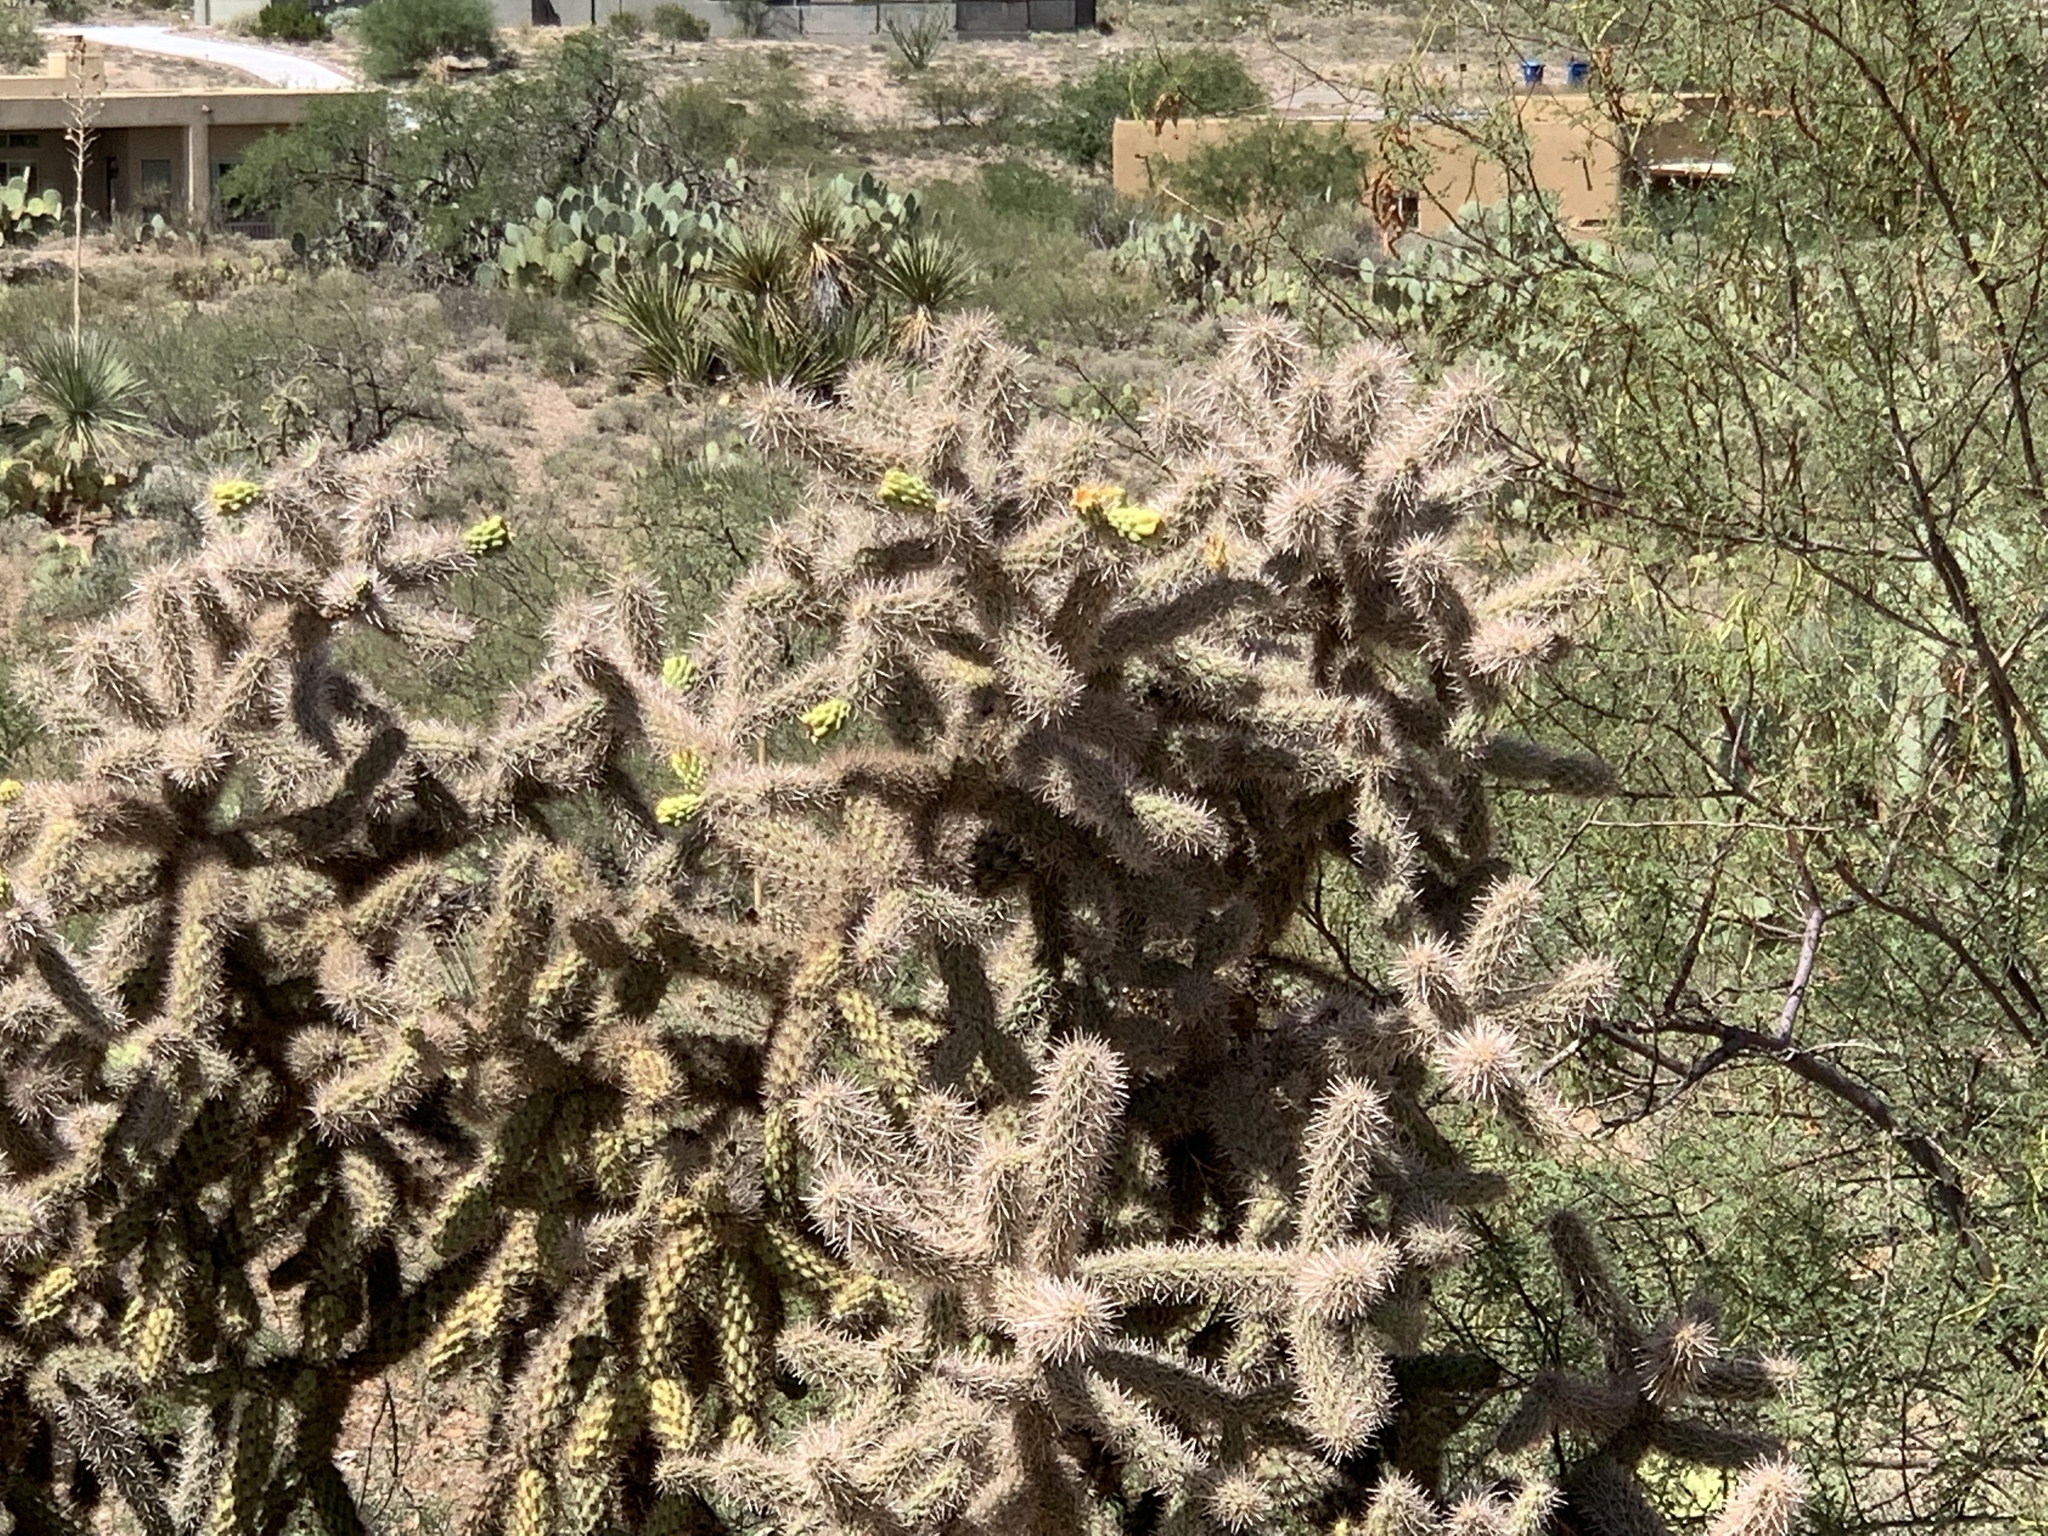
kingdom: Plantae
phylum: Tracheophyta
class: Magnoliopsida
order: Caryophyllales
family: Cactaceae
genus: Cylindropuntia
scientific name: Cylindropuntia imbricata
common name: Candelabrum cactus
